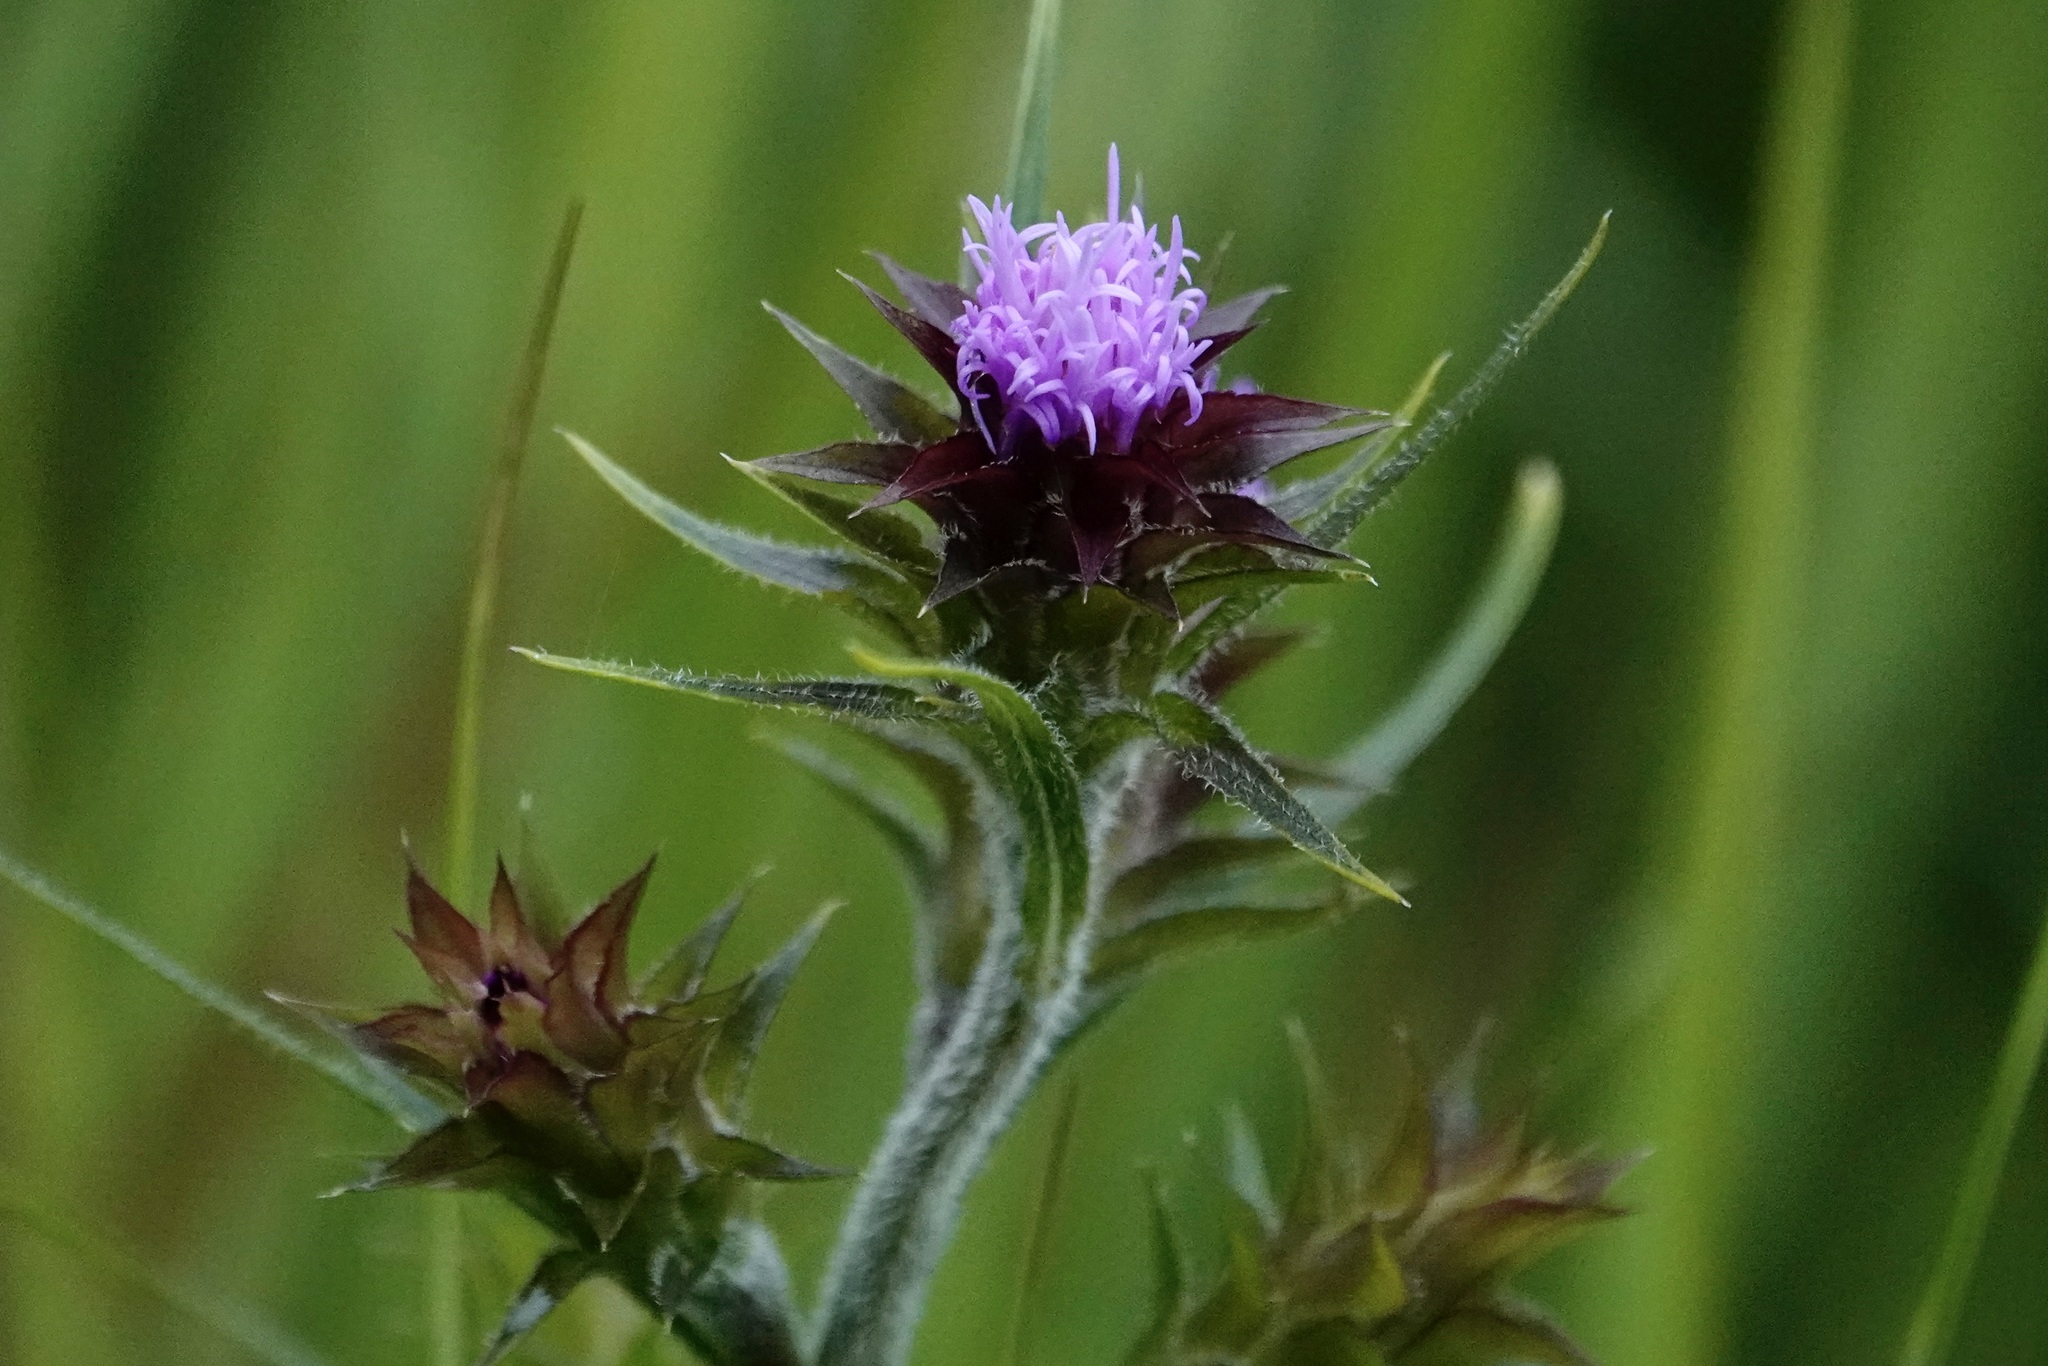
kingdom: Plantae
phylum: Tracheophyta
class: Magnoliopsida
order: Asterales
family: Asteraceae
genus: Liatris
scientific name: Liatris squarrosa
